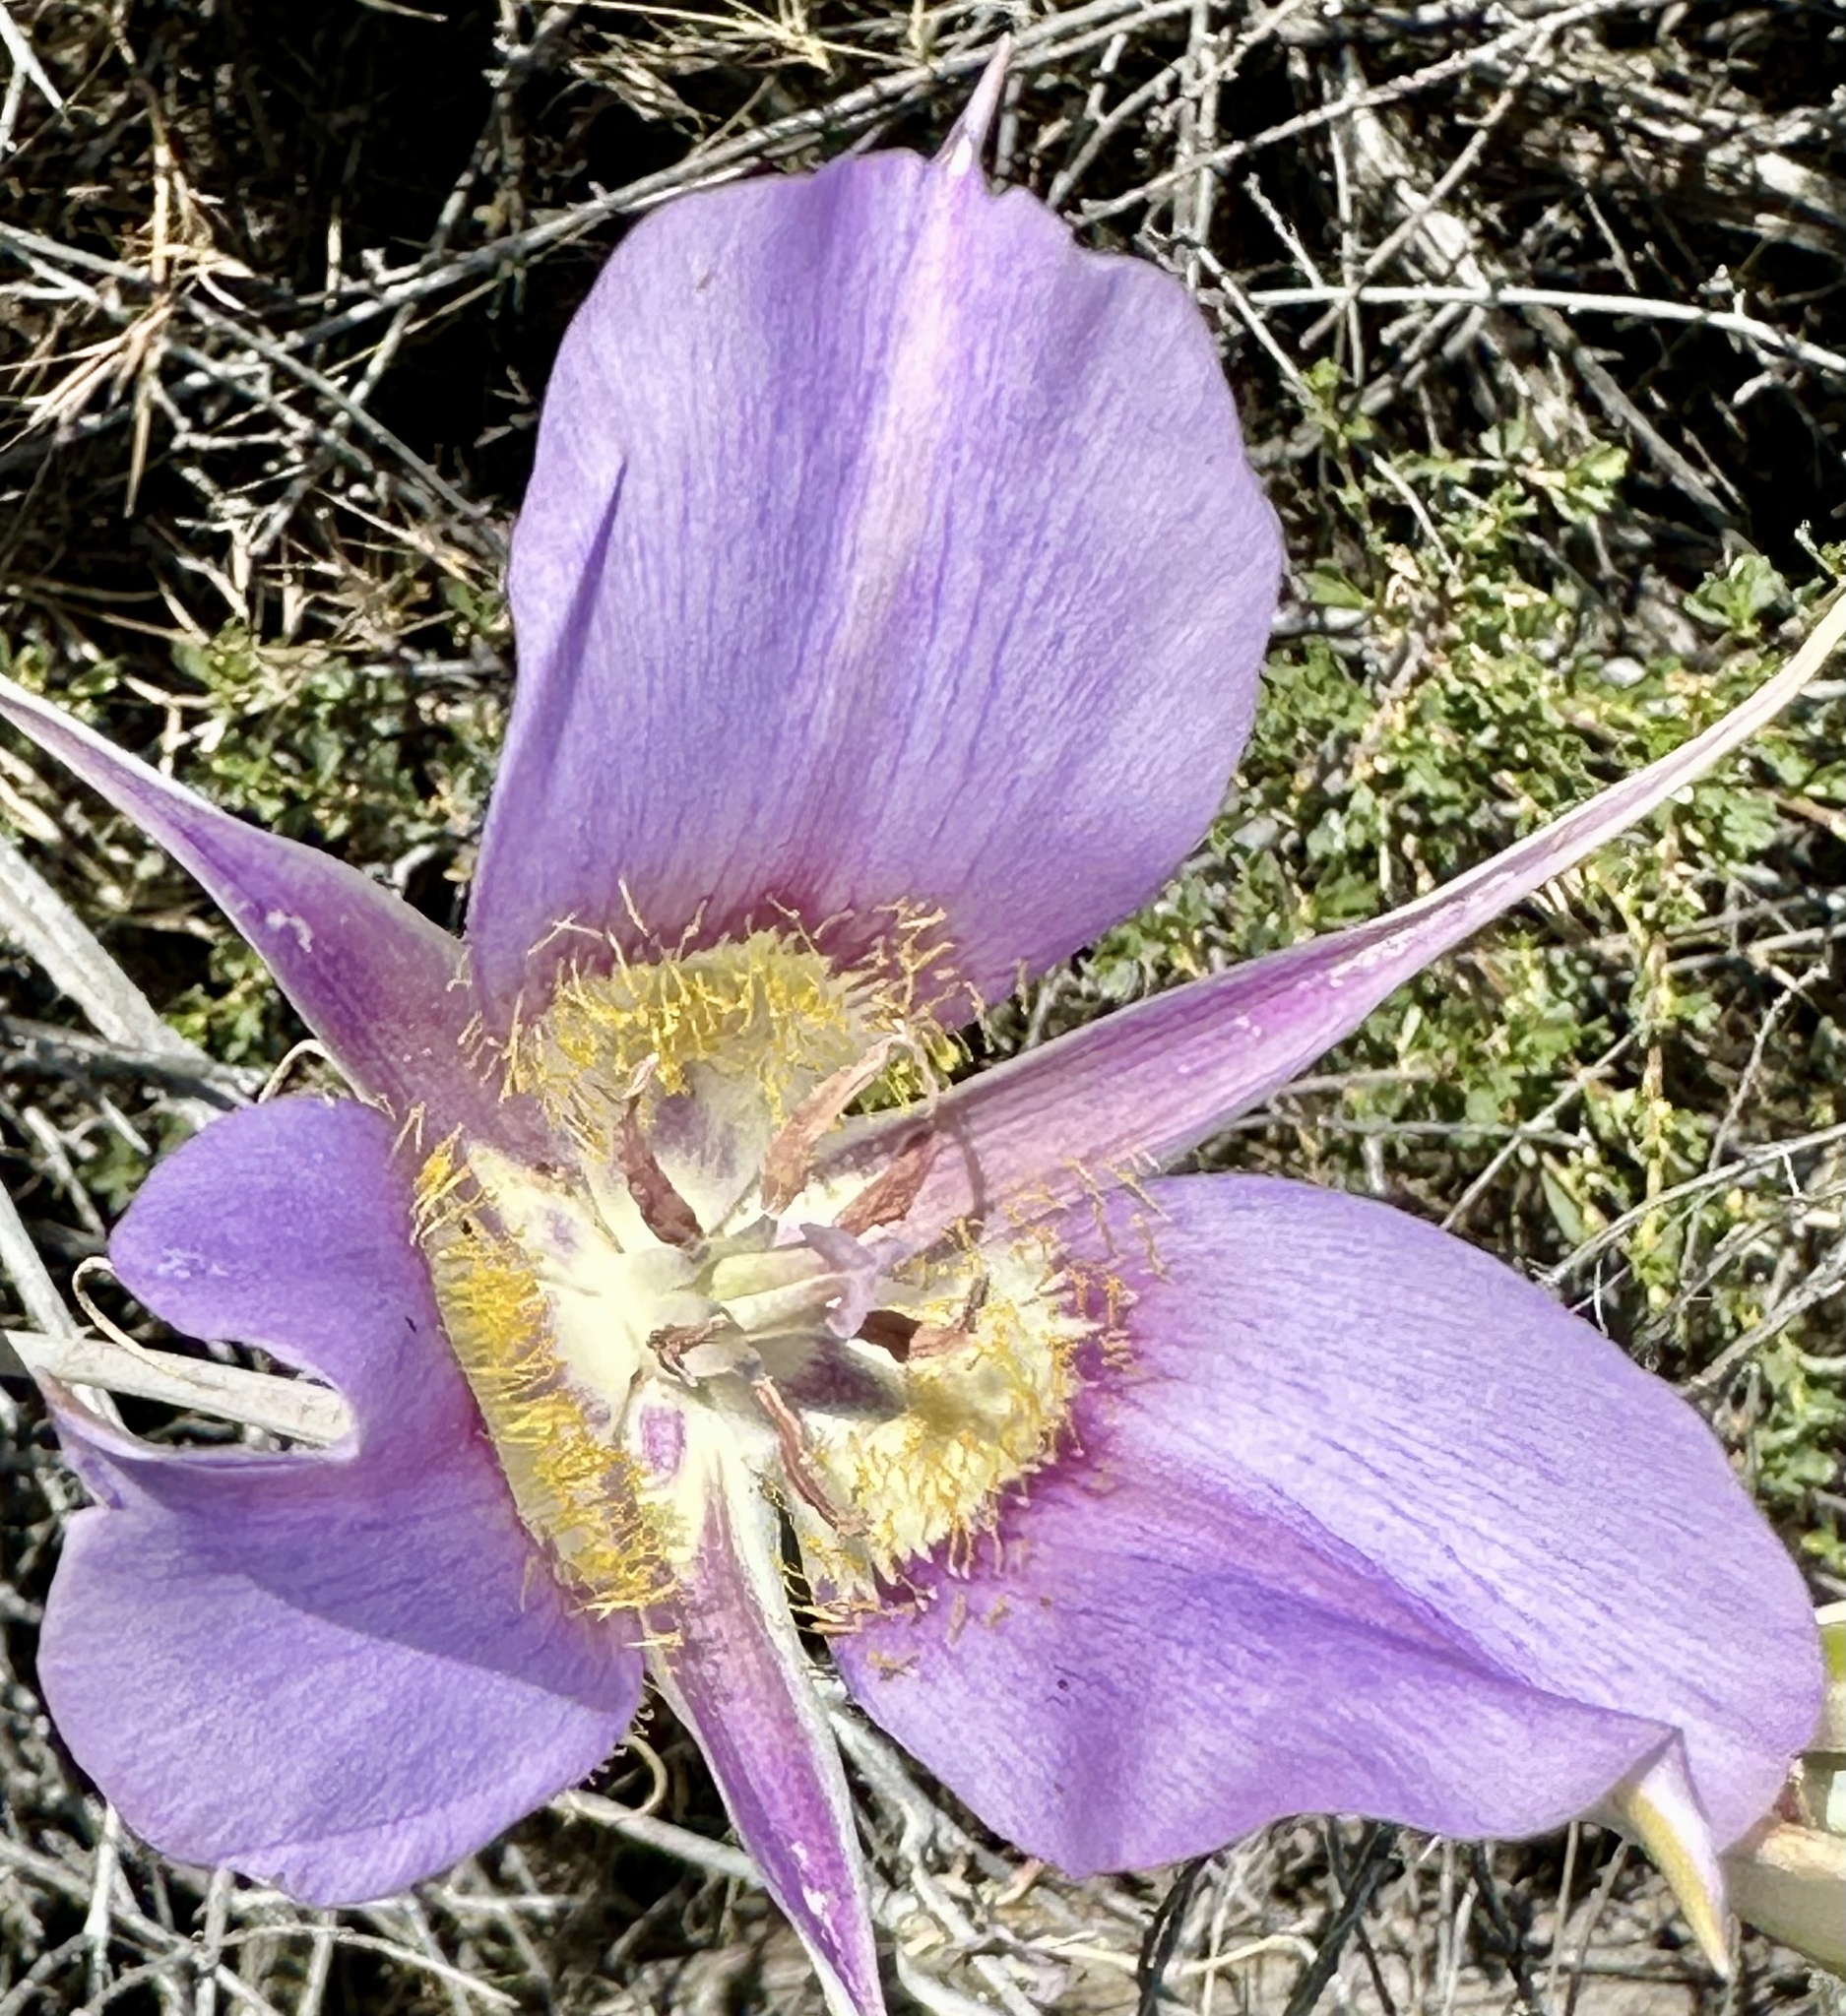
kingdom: Plantae
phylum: Tracheophyta
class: Liliopsida
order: Liliales
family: Liliaceae
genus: Calochortus
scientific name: Calochortus macrocarpus
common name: Green-band mariposa lily
